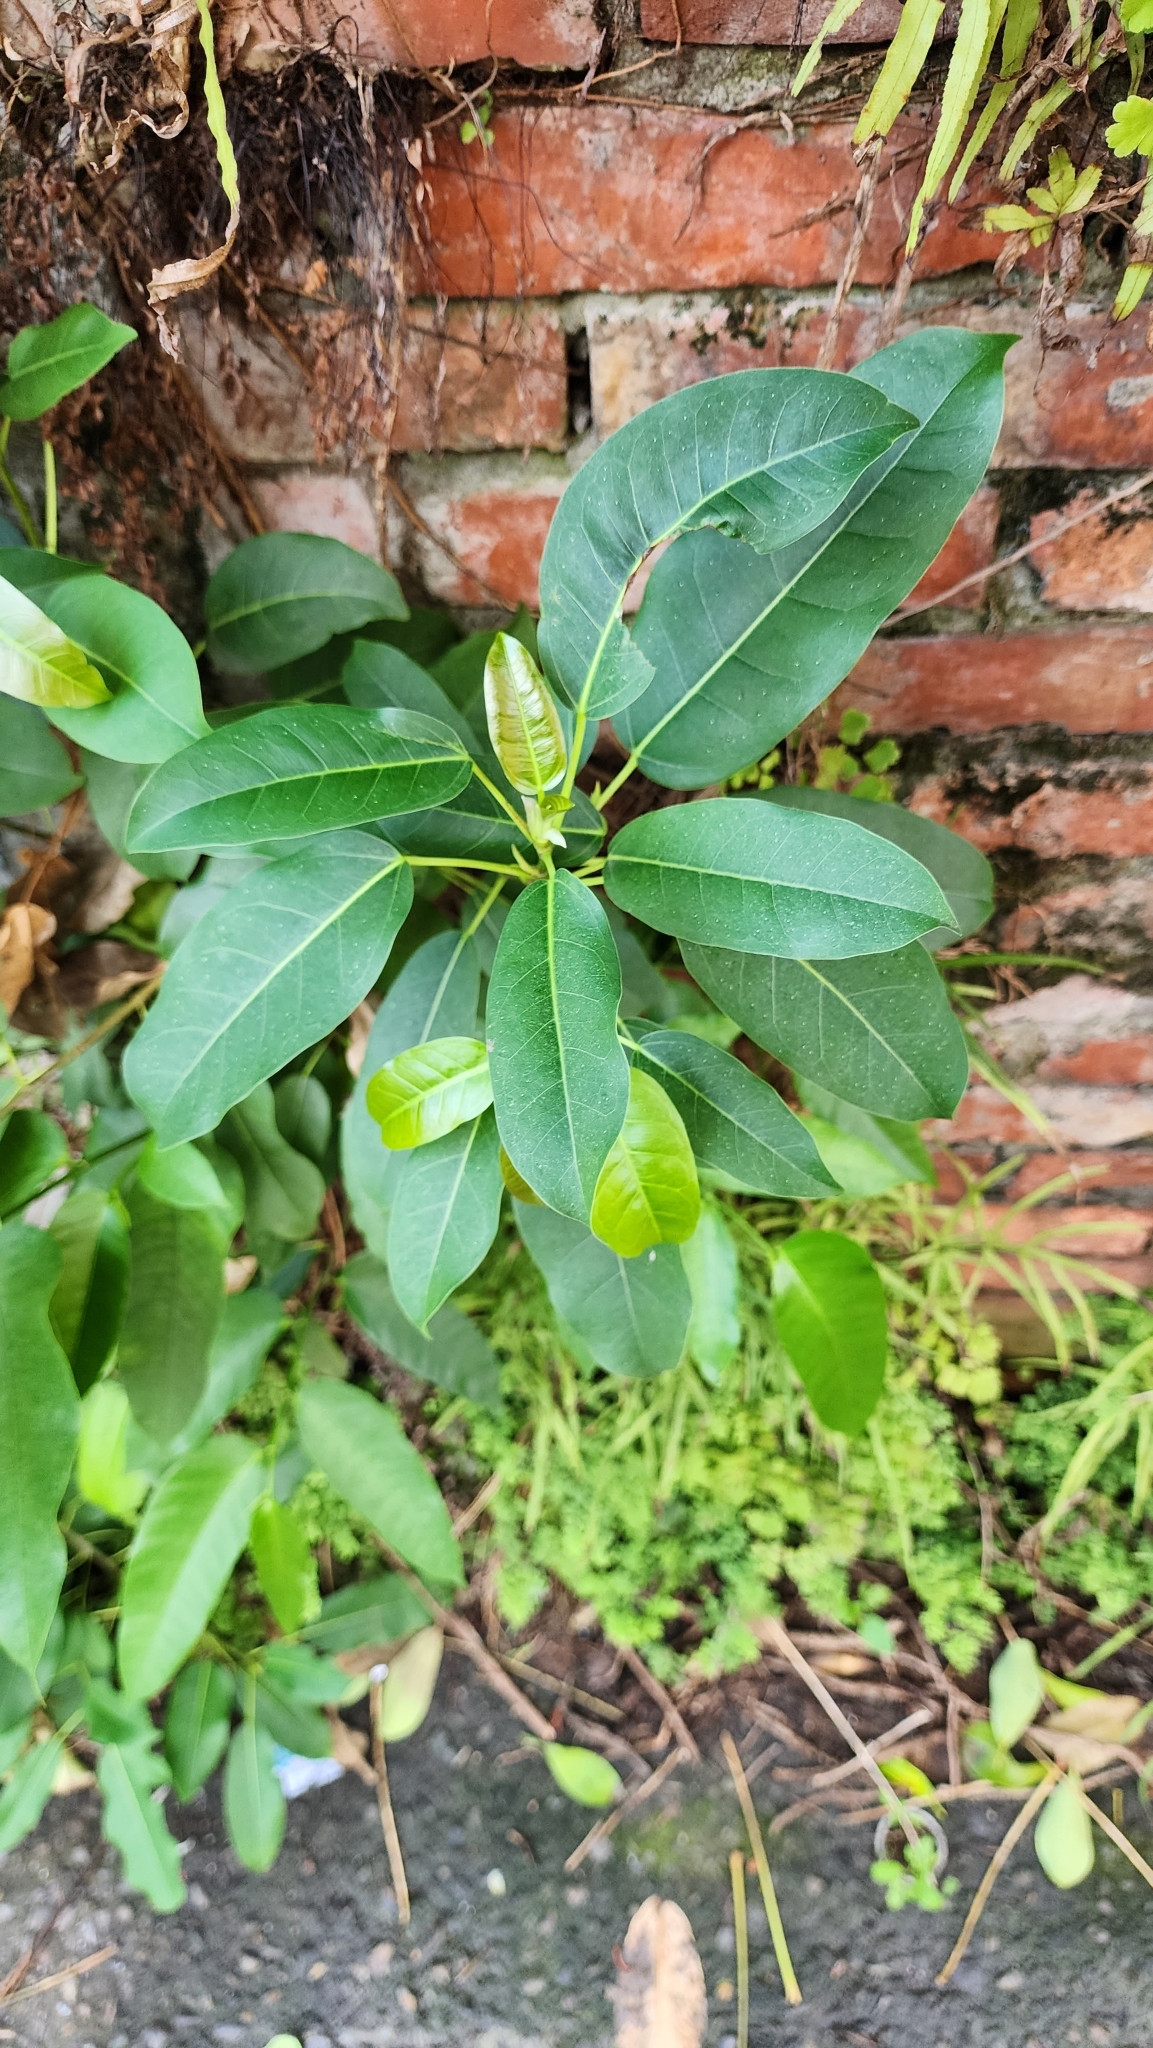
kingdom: Plantae
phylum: Tracheophyta
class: Magnoliopsida
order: Rosales
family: Moraceae
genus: Ficus
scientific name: Ficus subpisocarpa
